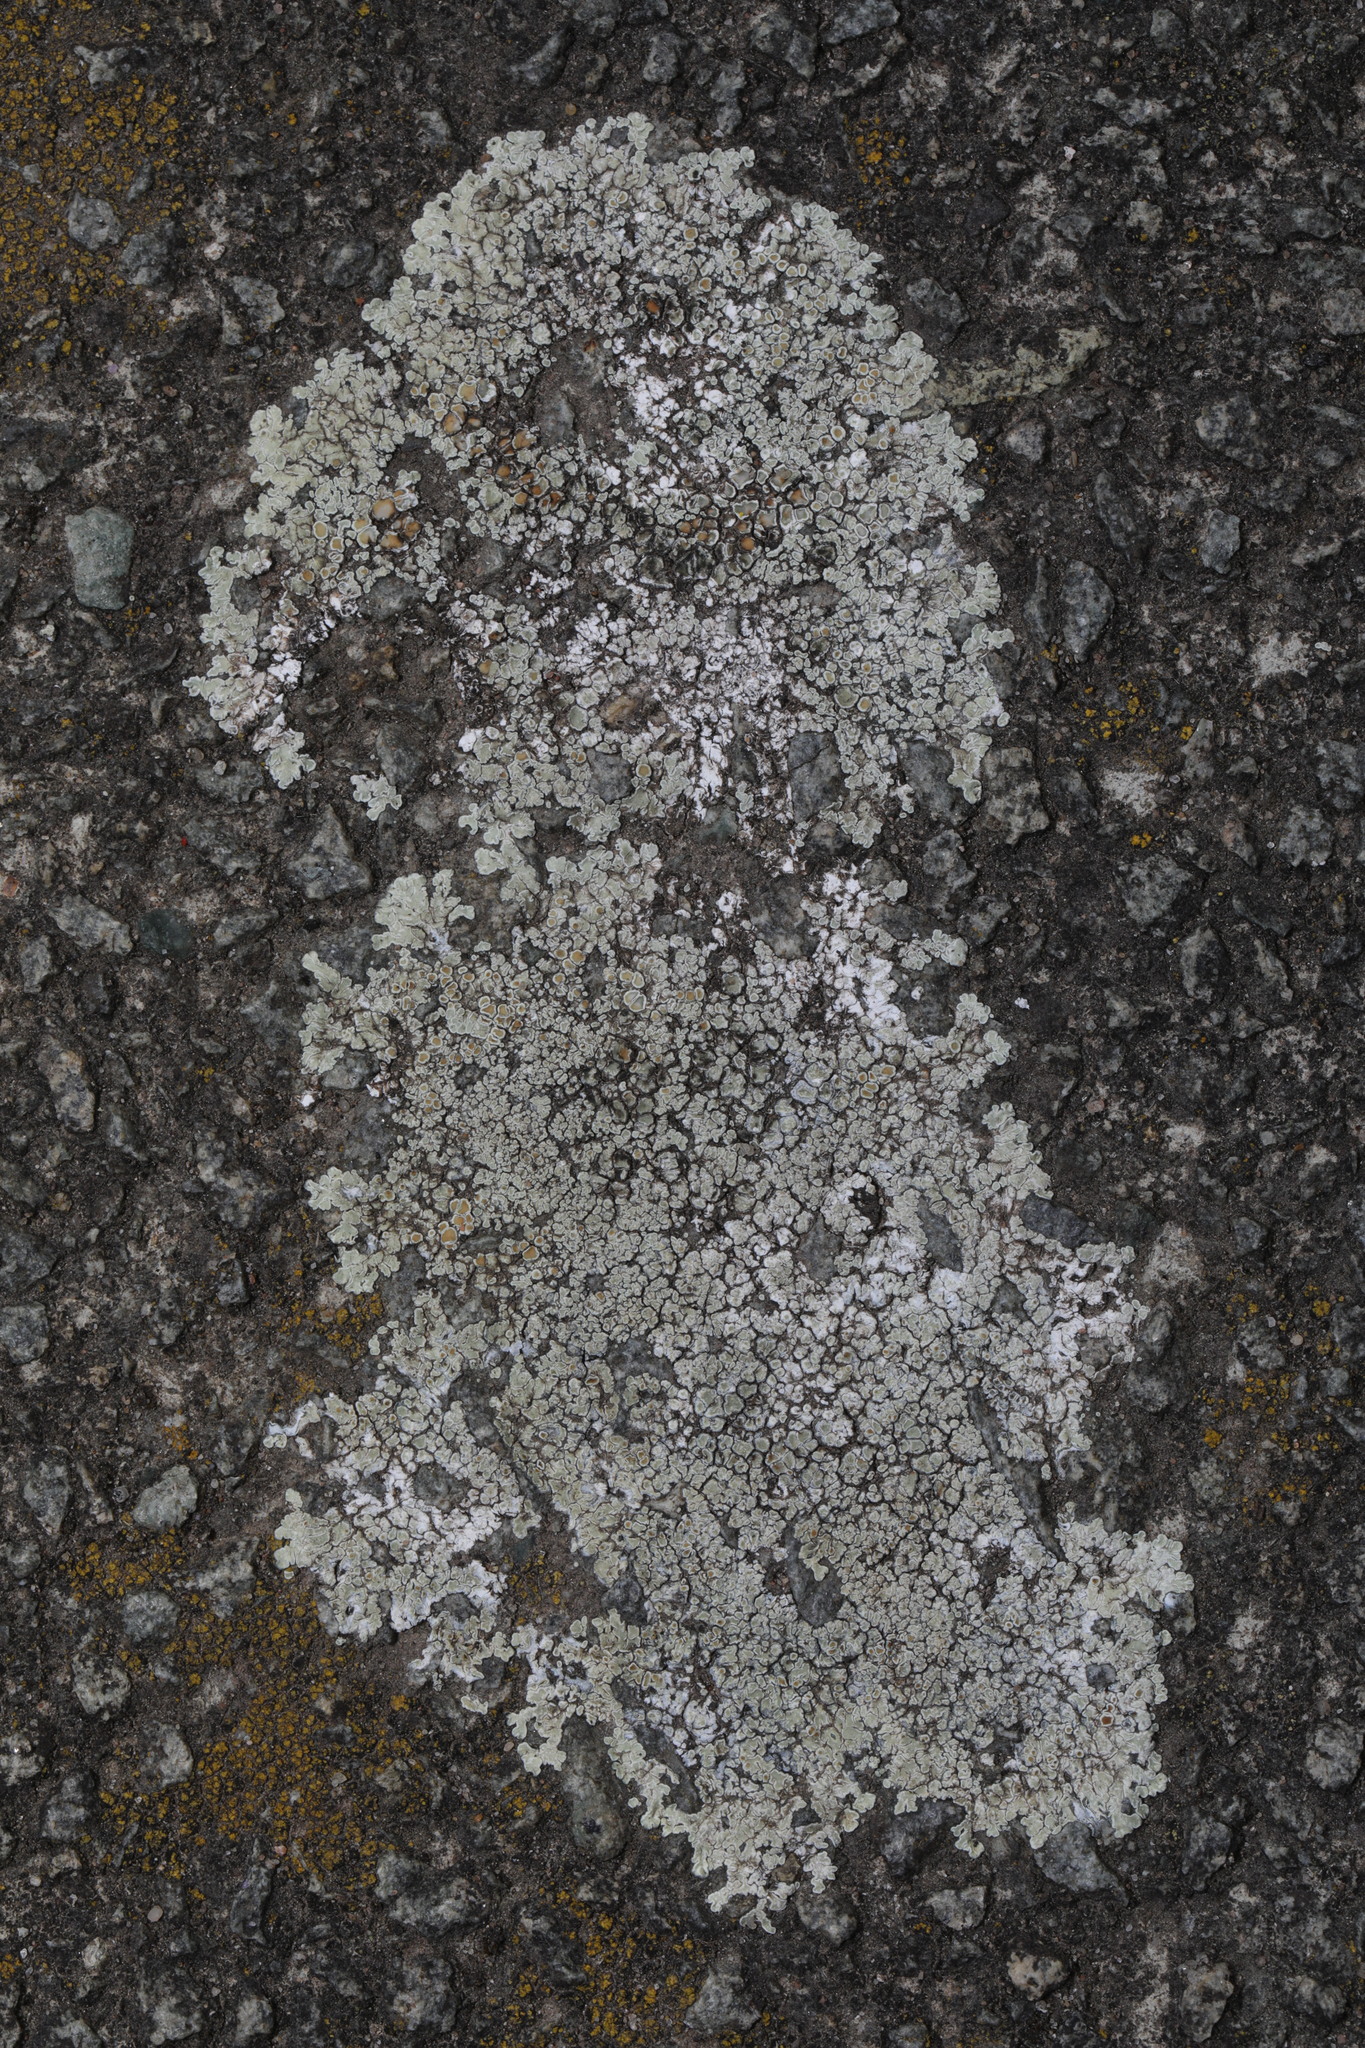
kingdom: Fungi
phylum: Ascomycota
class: Lecanoromycetes
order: Lecanorales
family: Lecanoraceae
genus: Protoparmeliopsis
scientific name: Protoparmeliopsis muralis
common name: Stonewall rim lichen
